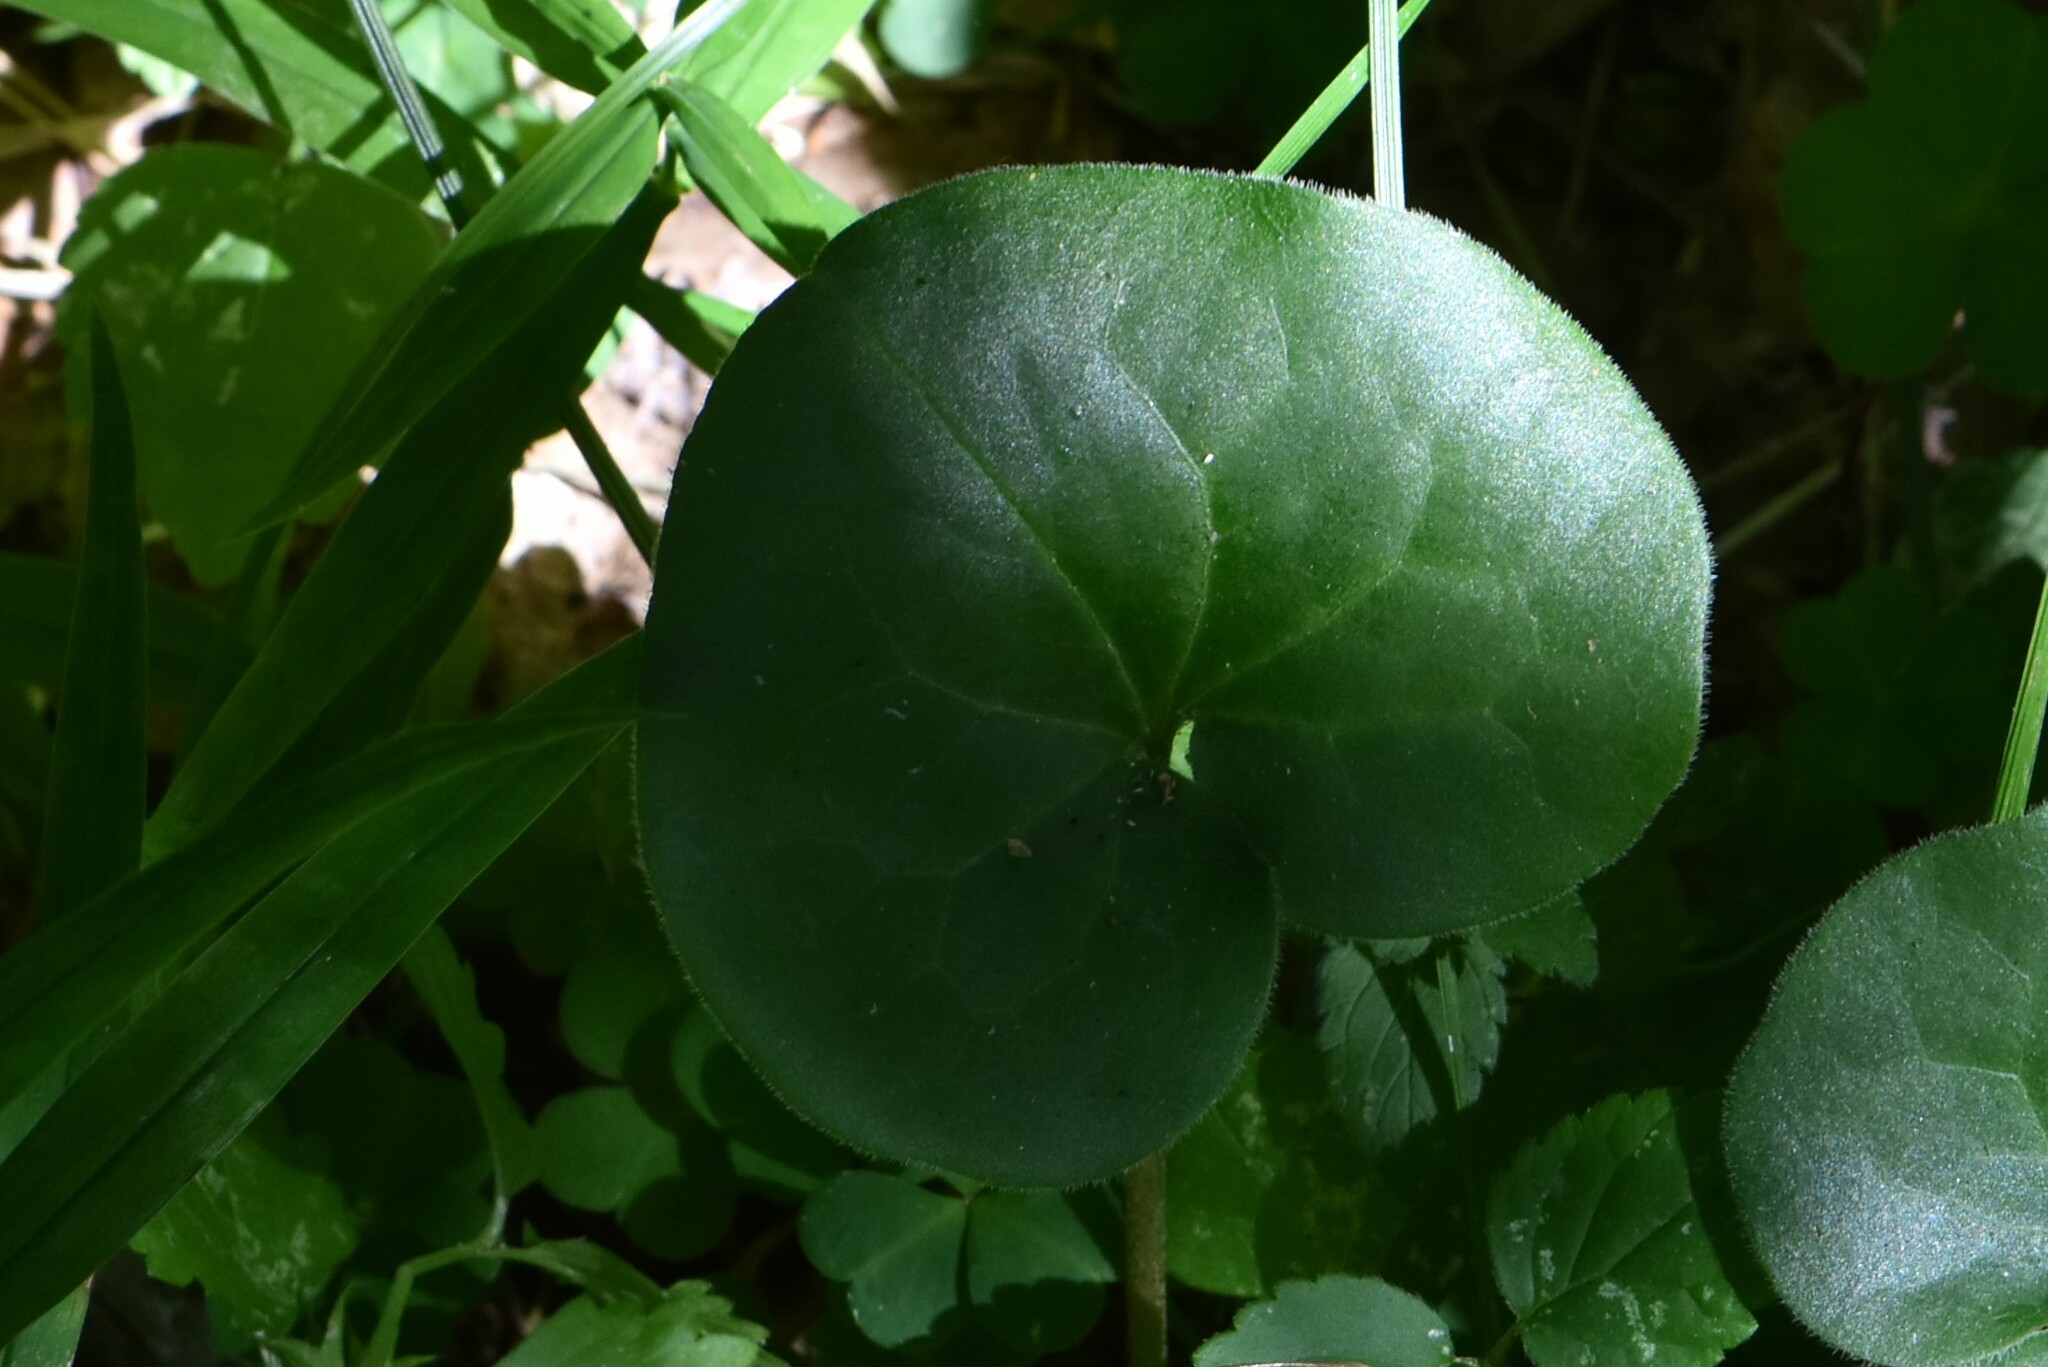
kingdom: Plantae
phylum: Tracheophyta
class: Magnoliopsida
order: Piperales
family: Aristolochiaceae
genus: Asarum
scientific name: Asarum europaeum
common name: Asarabacca
